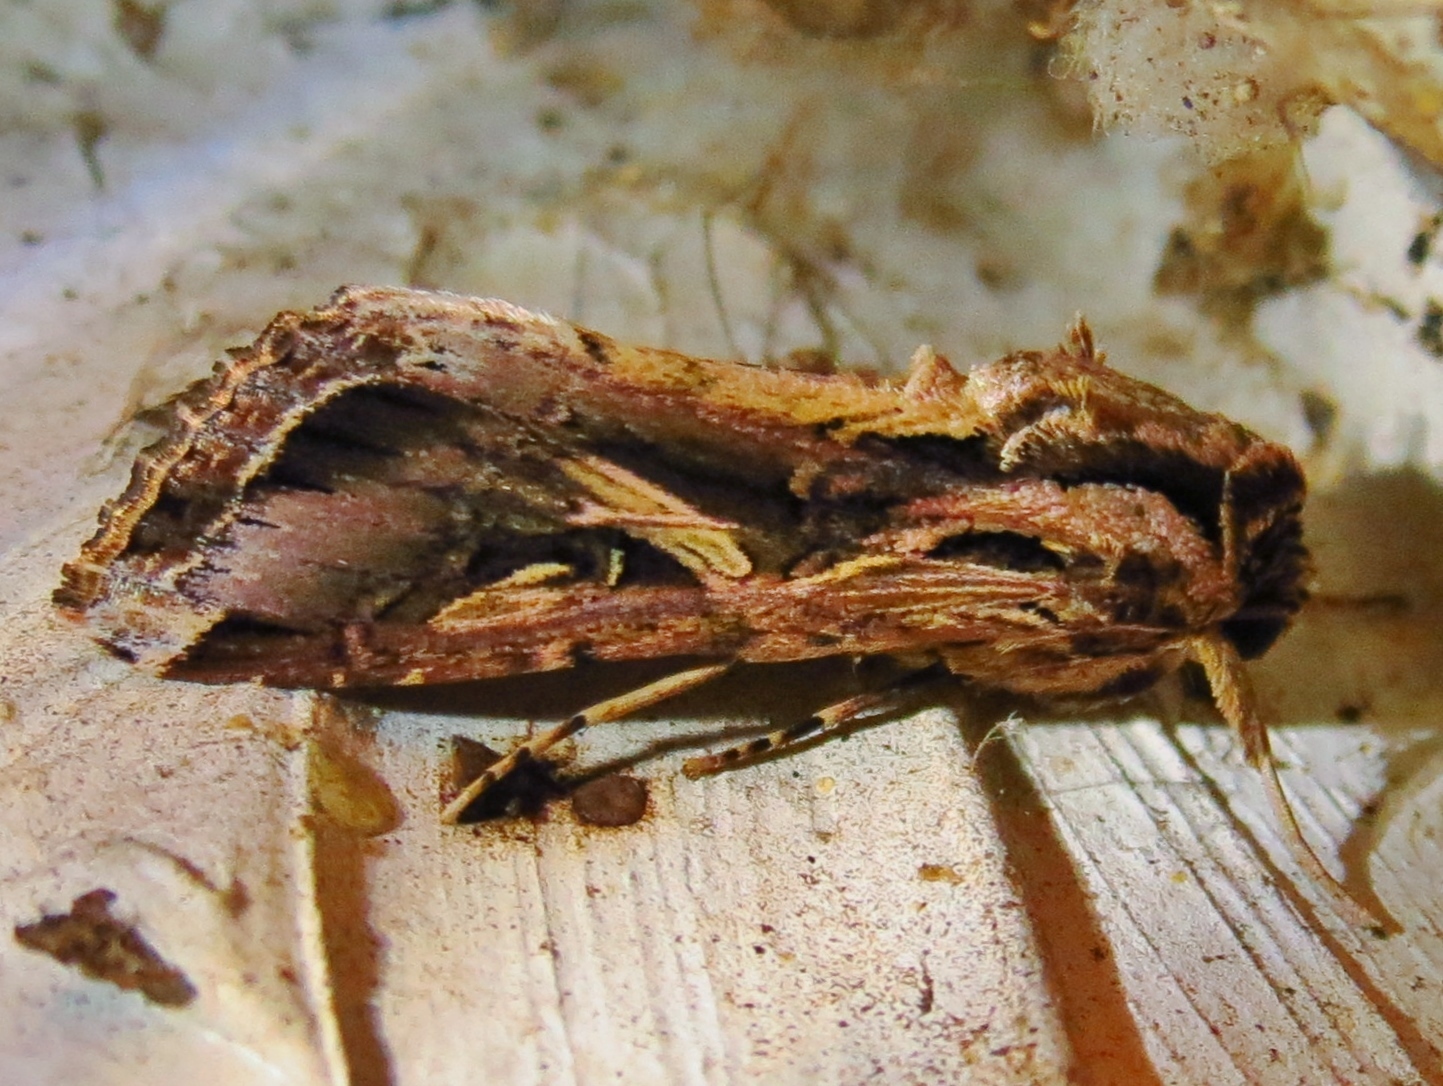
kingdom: Animalia
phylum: Arthropoda
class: Insecta
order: Lepidoptera
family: Noctuidae
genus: Spodoptera
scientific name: Spodoptera dolichos
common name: Sweetpotato armyworm
